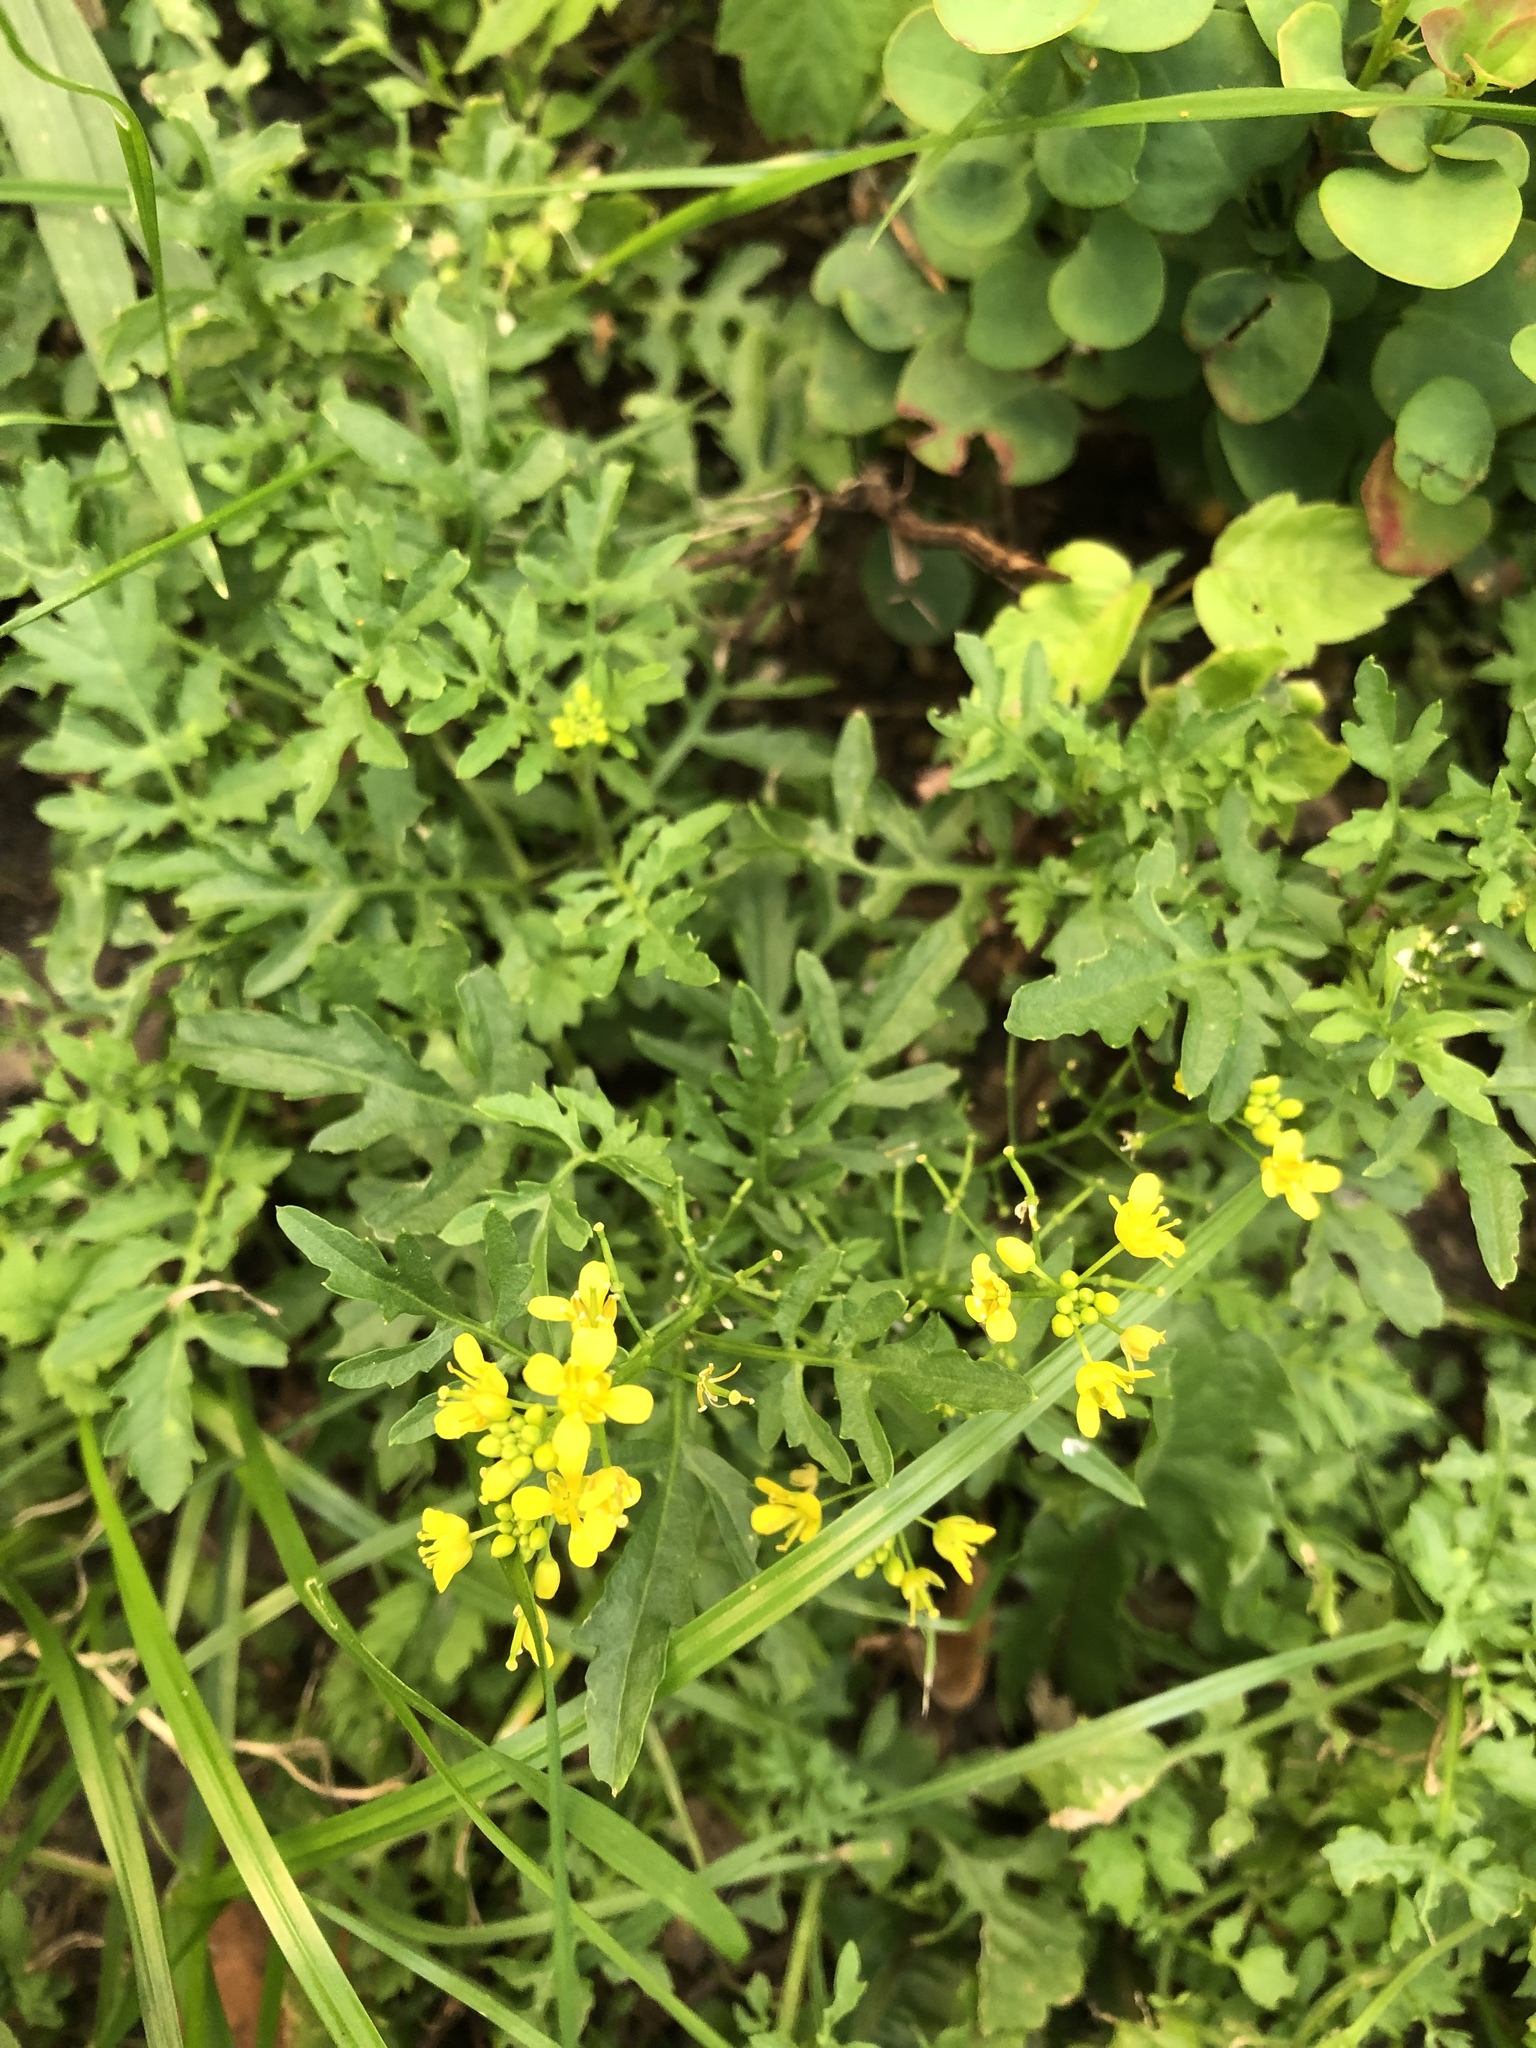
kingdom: Plantae
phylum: Tracheophyta
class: Magnoliopsida
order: Brassicales
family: Brassicaceae
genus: Rorippa
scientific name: Rorippa sylvestris
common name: Creeping yellowcress
